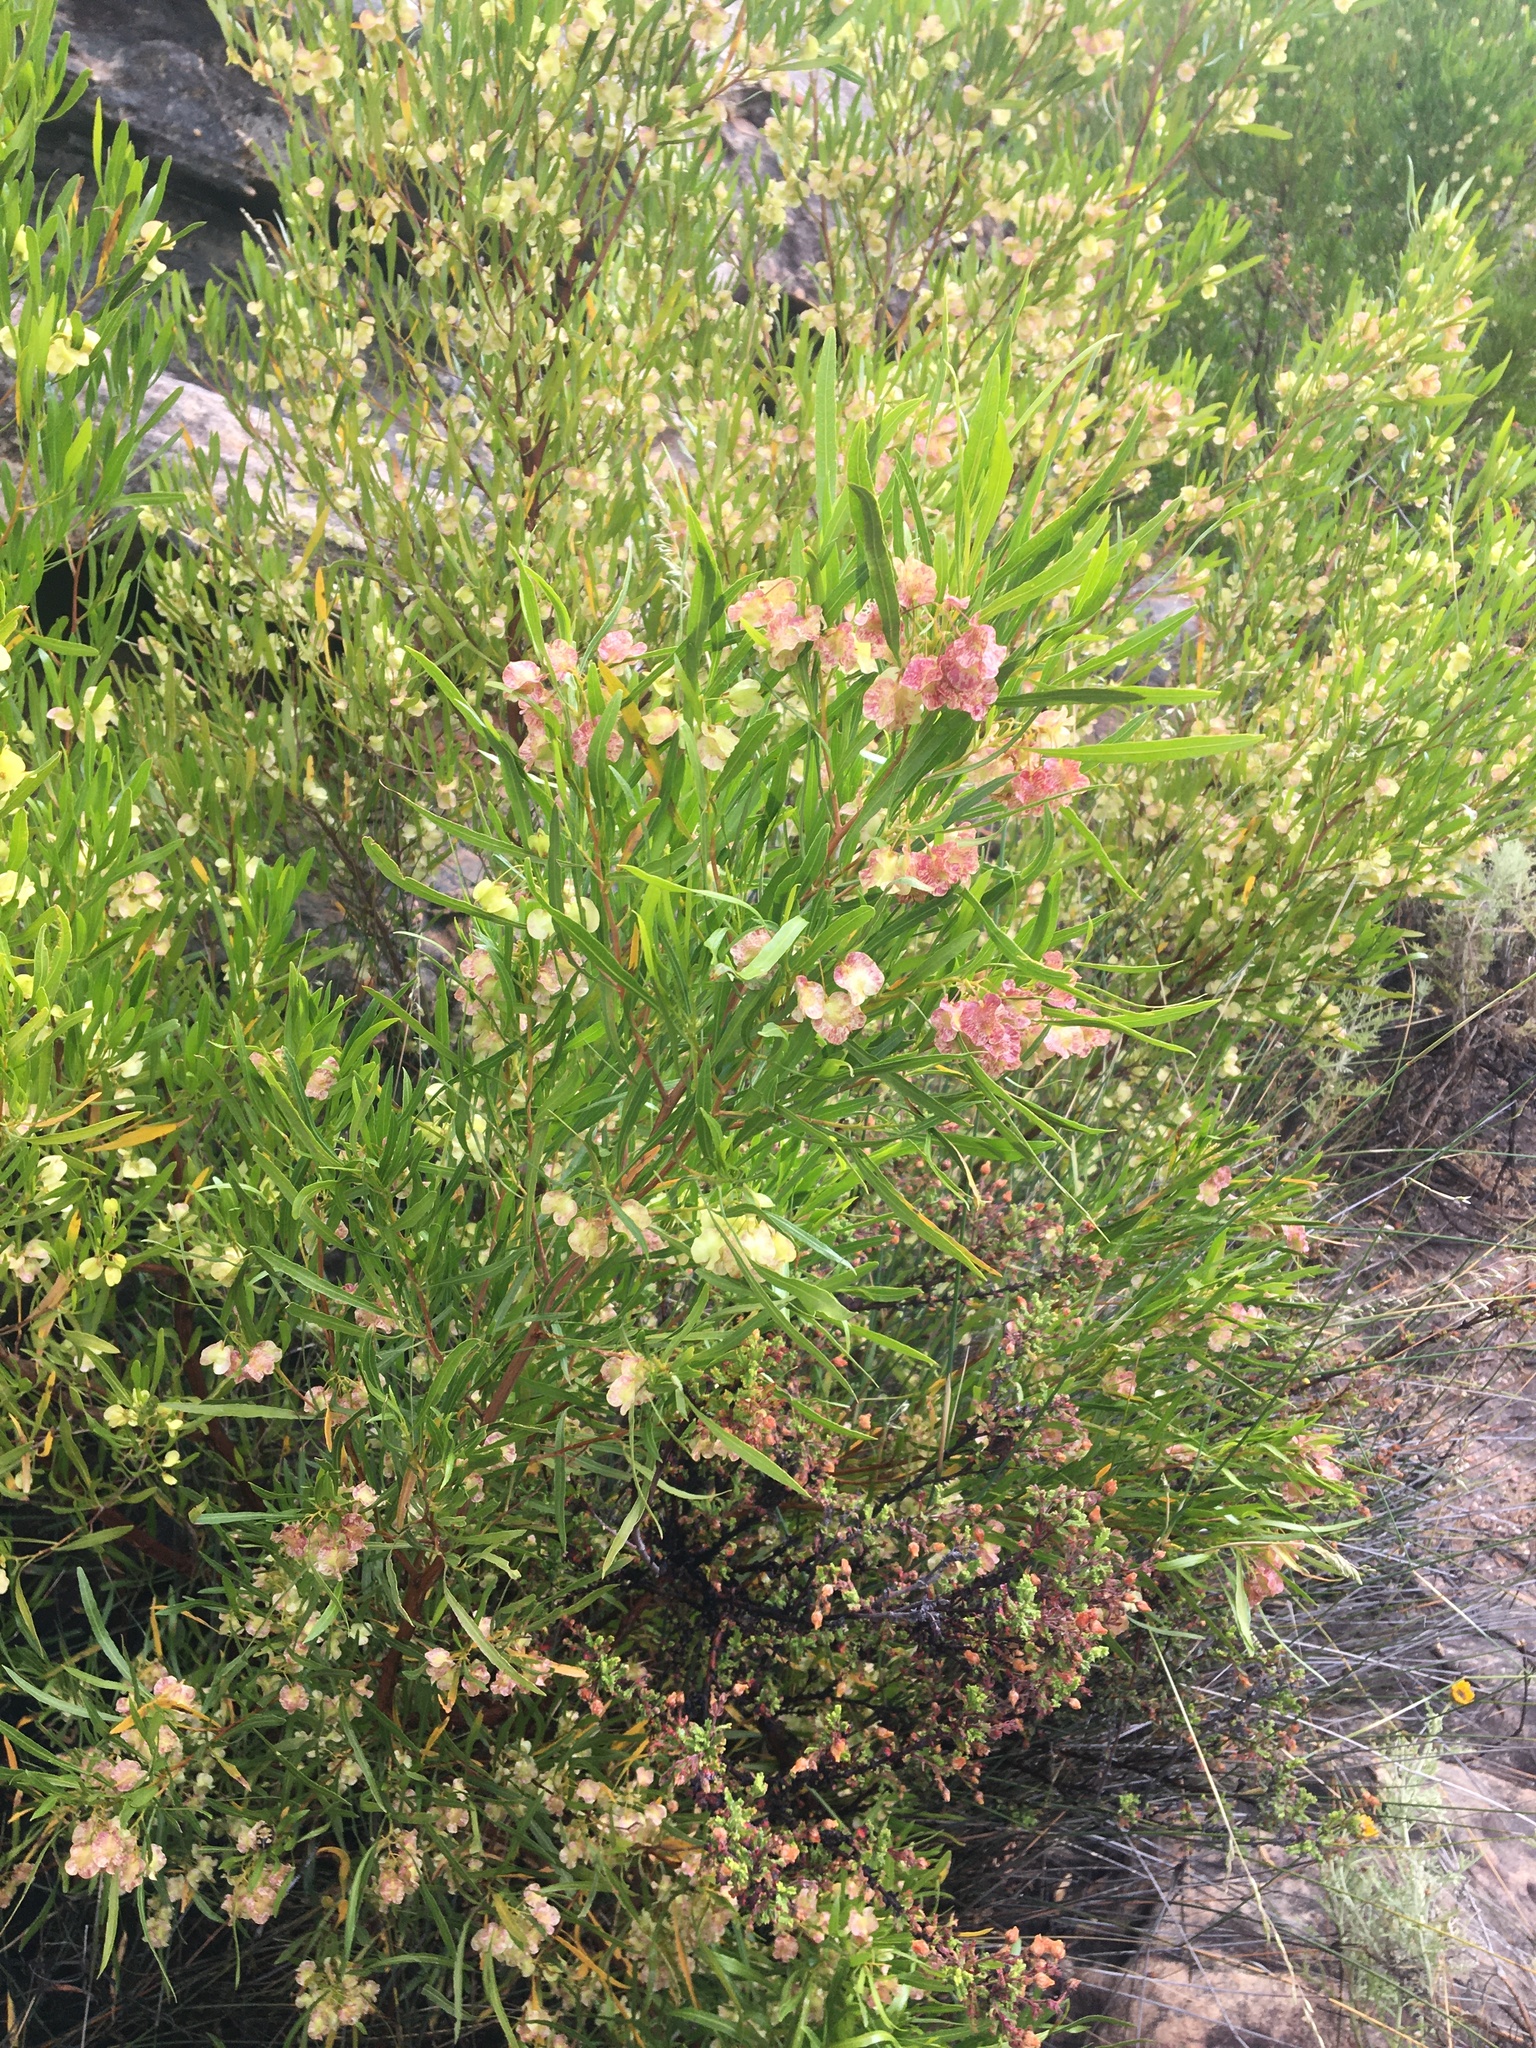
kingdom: Plantae
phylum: Tracheophyta
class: Magnoliopsida
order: Sapindales
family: Sapindaceae
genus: Dodonaea
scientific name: Dodonaea viscosa
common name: Hopbush
